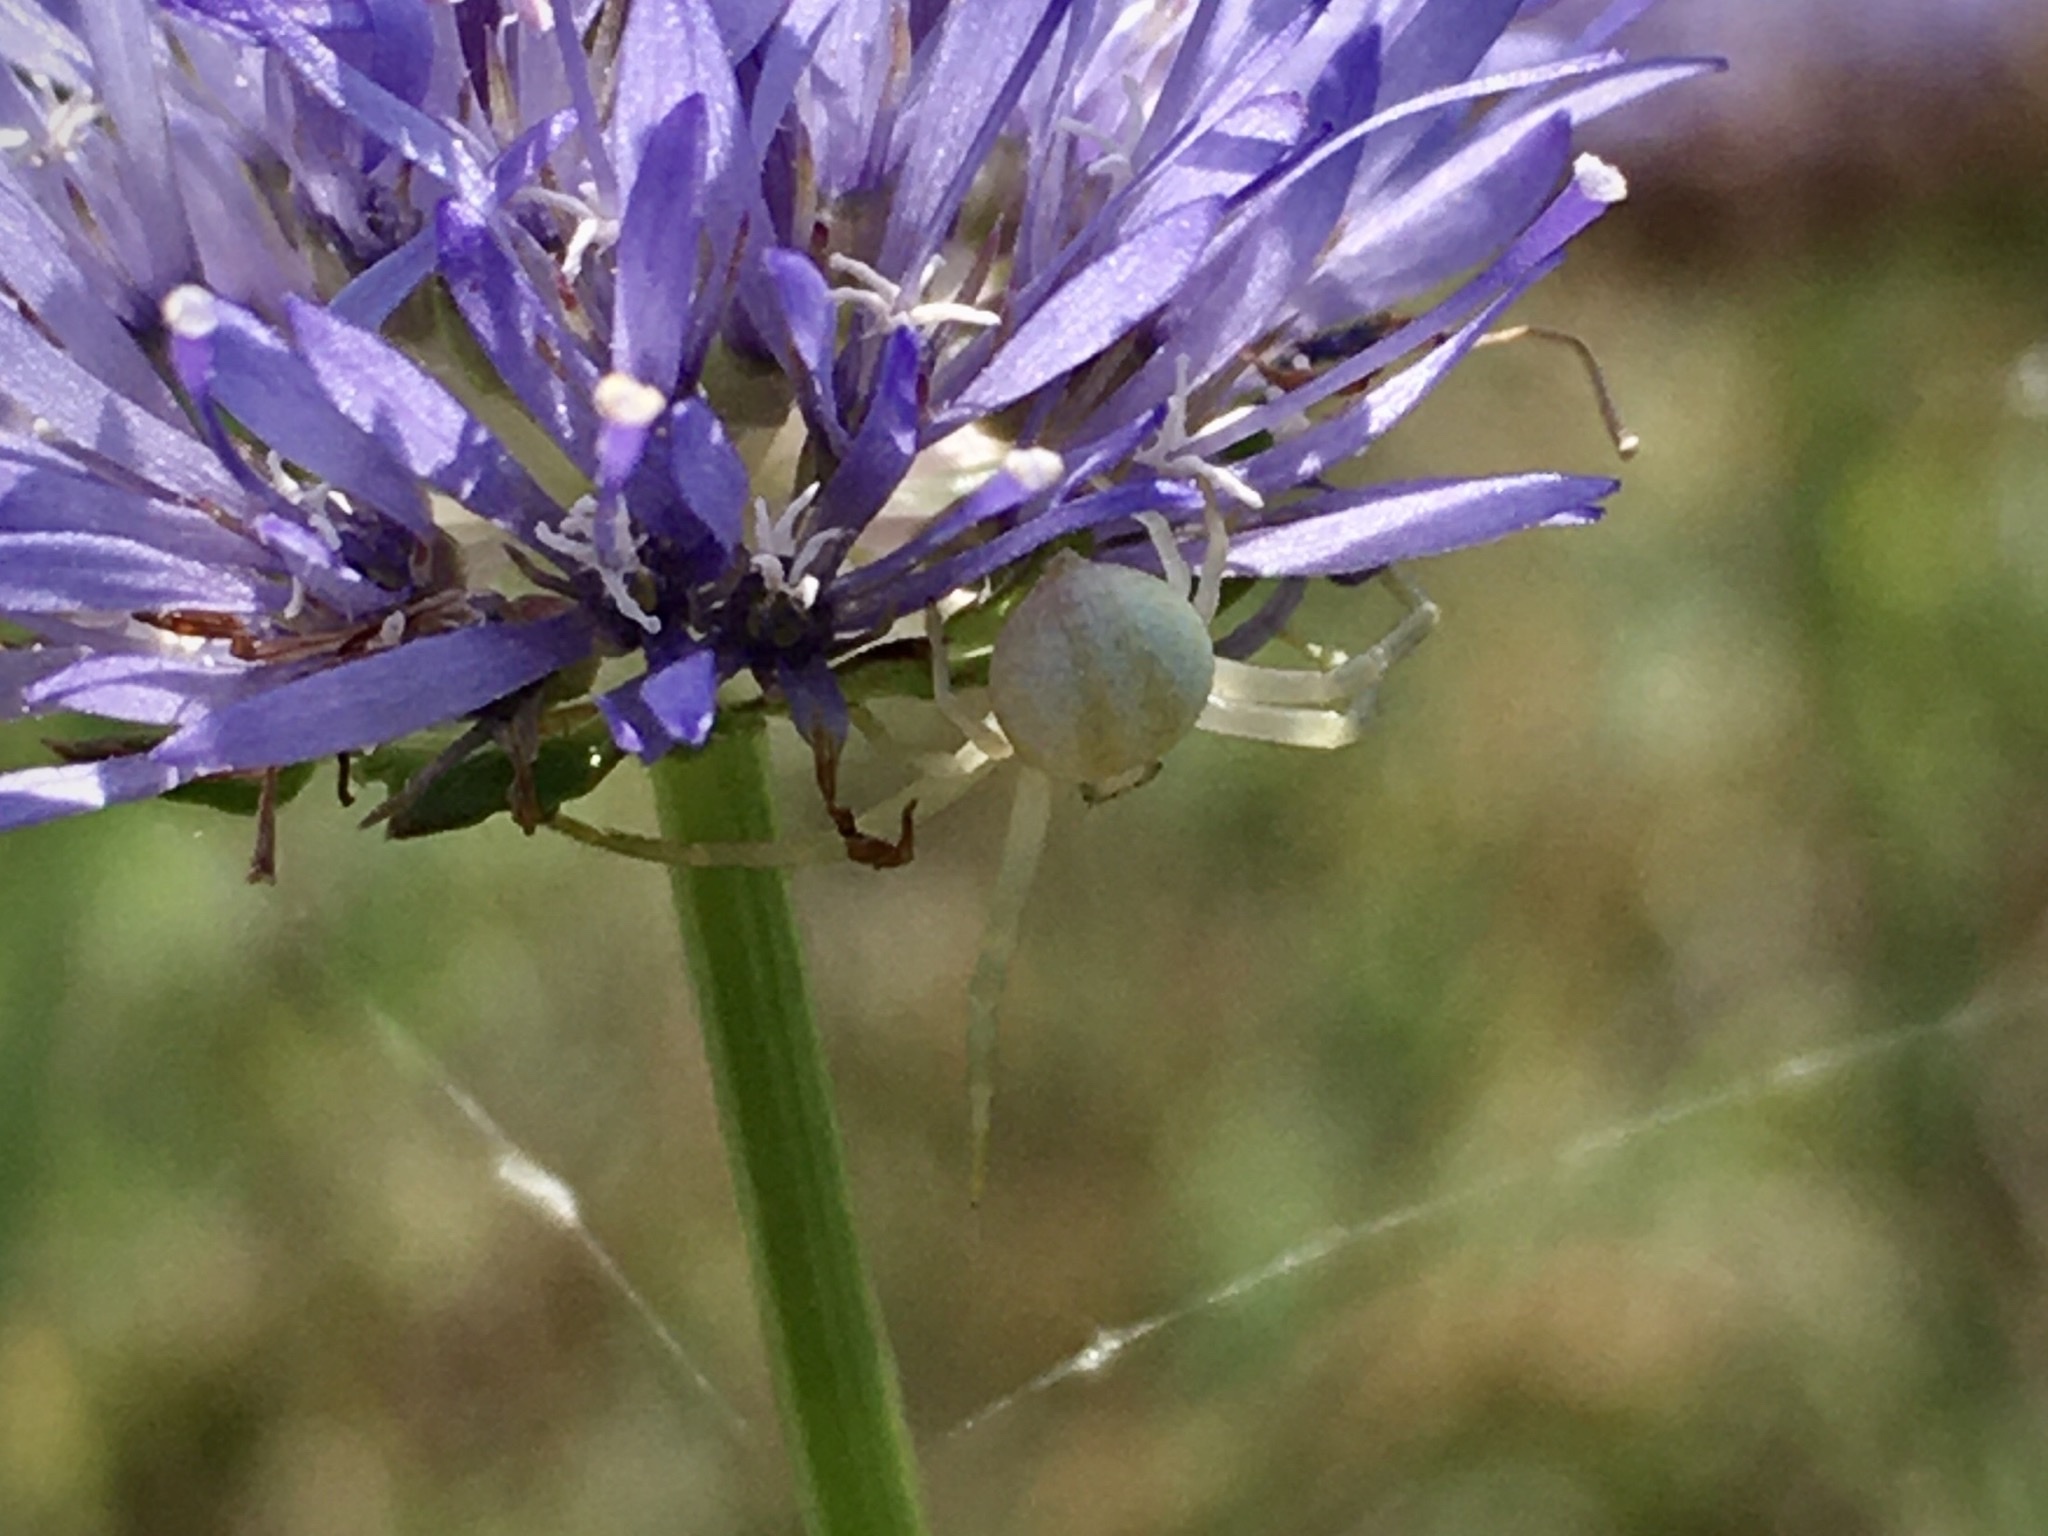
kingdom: Animalia
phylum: Arthropoda
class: Arachnida
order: Araneae
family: Thomisidae
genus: Misumena
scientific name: Misumena vatia
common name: Goldenrod crab spider
